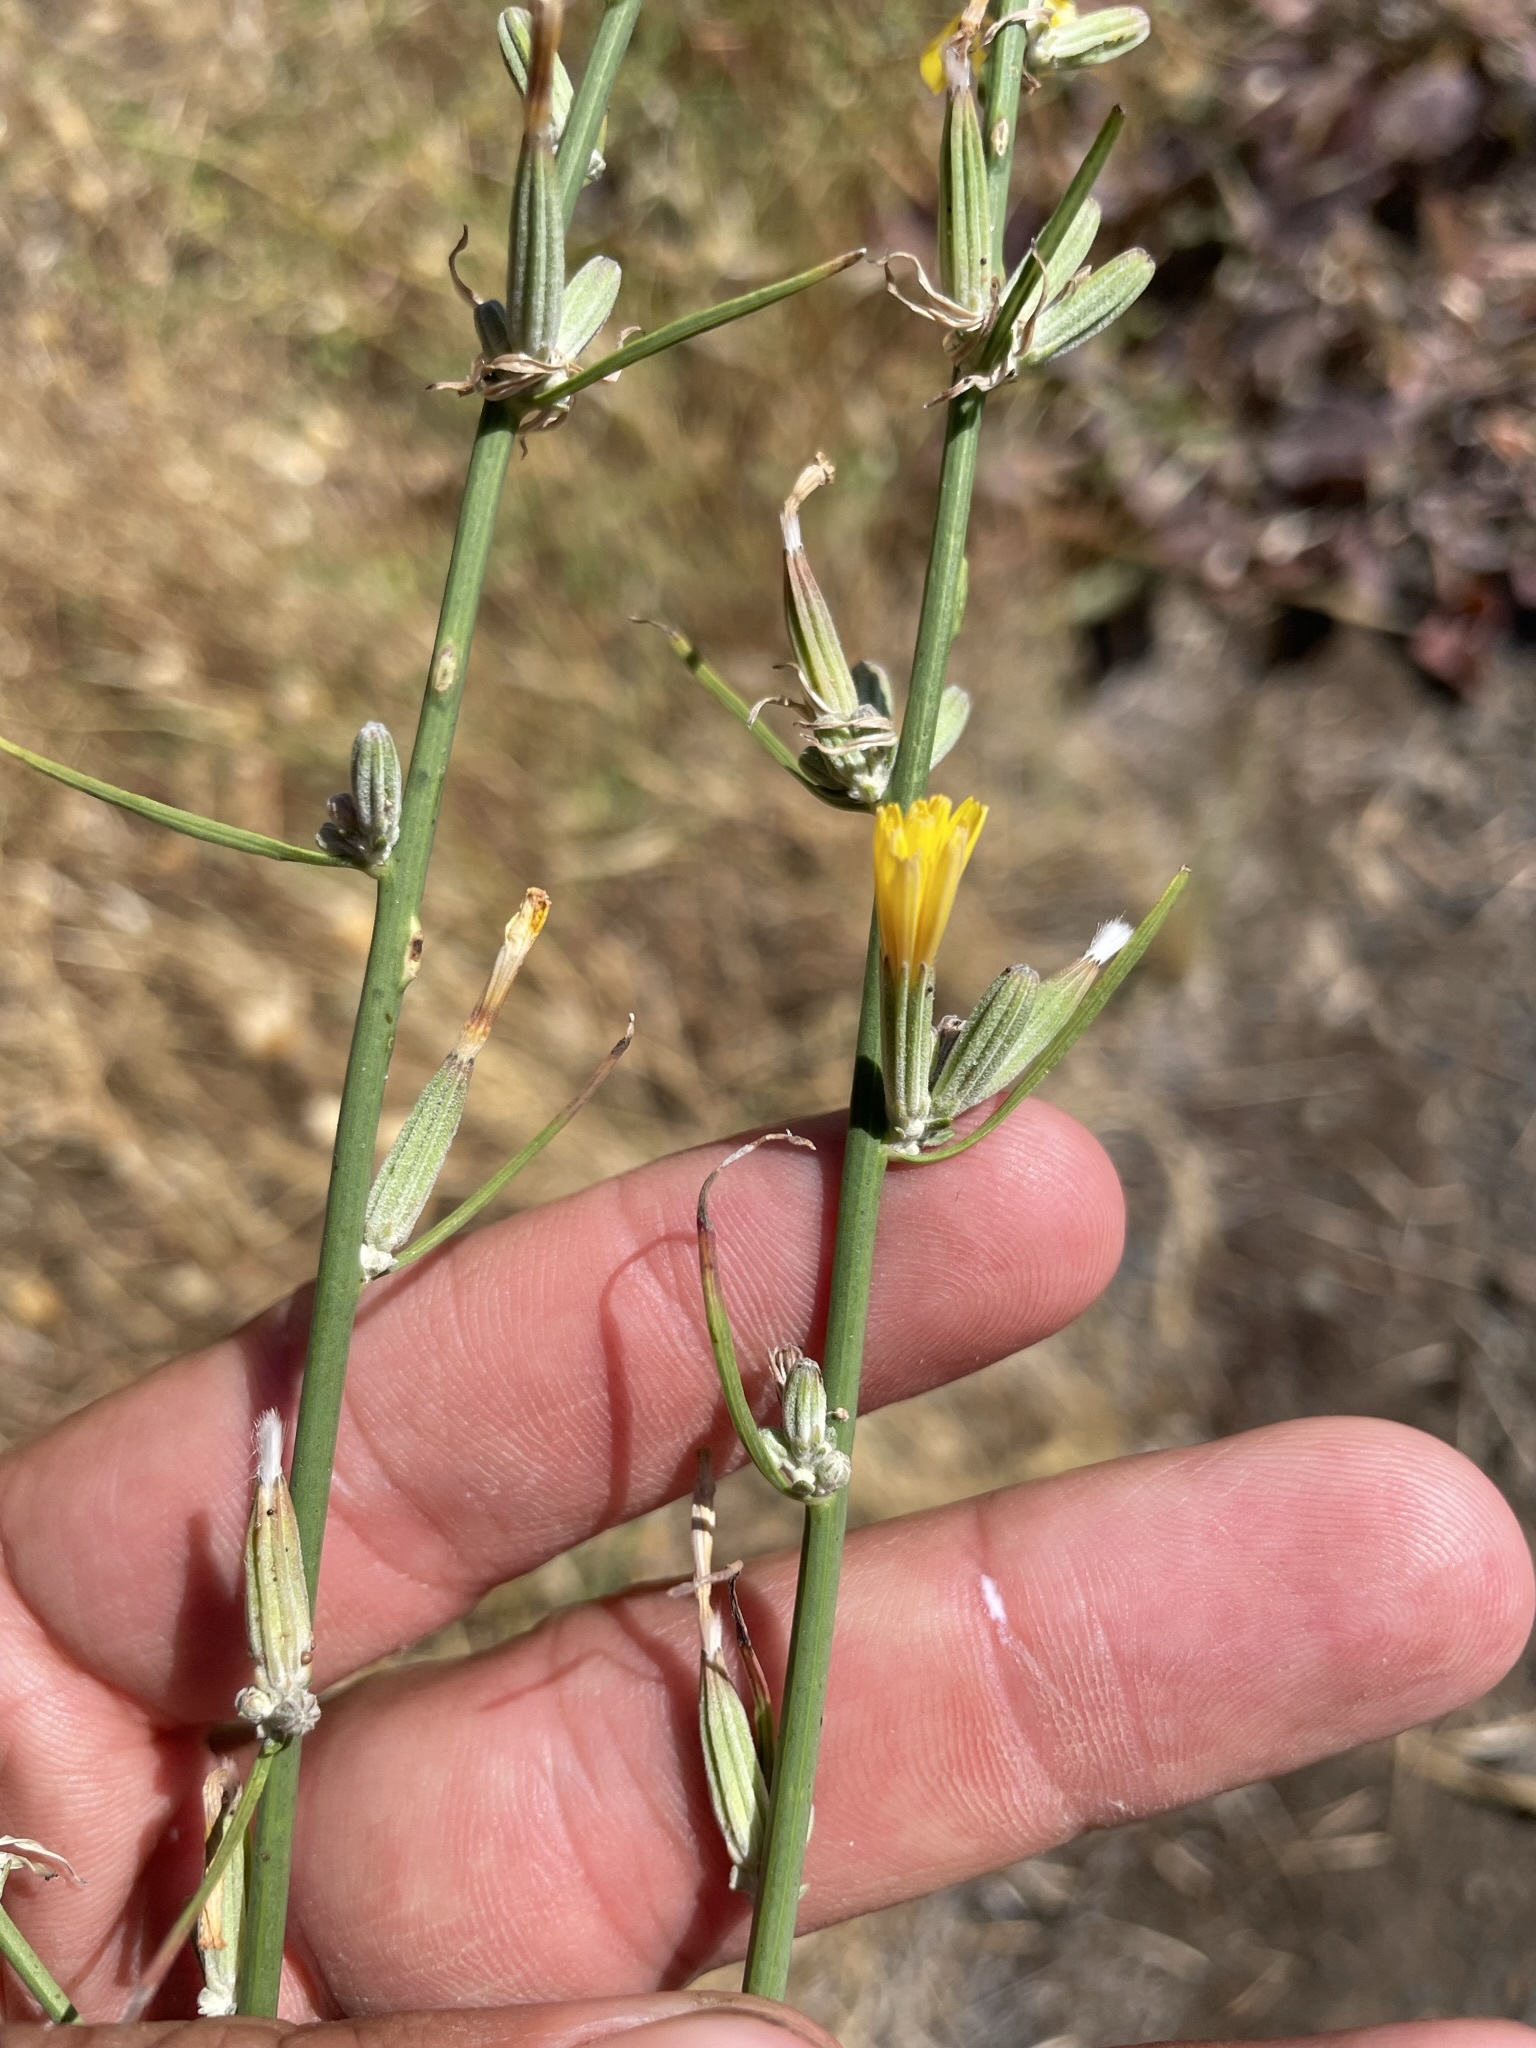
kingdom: Plantae
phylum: Tracheophyta
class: Magnoliopsida
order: Asterales
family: Asteraceae
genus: Chondrilla
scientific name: Chondrilla juncea
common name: Skeleton weed
